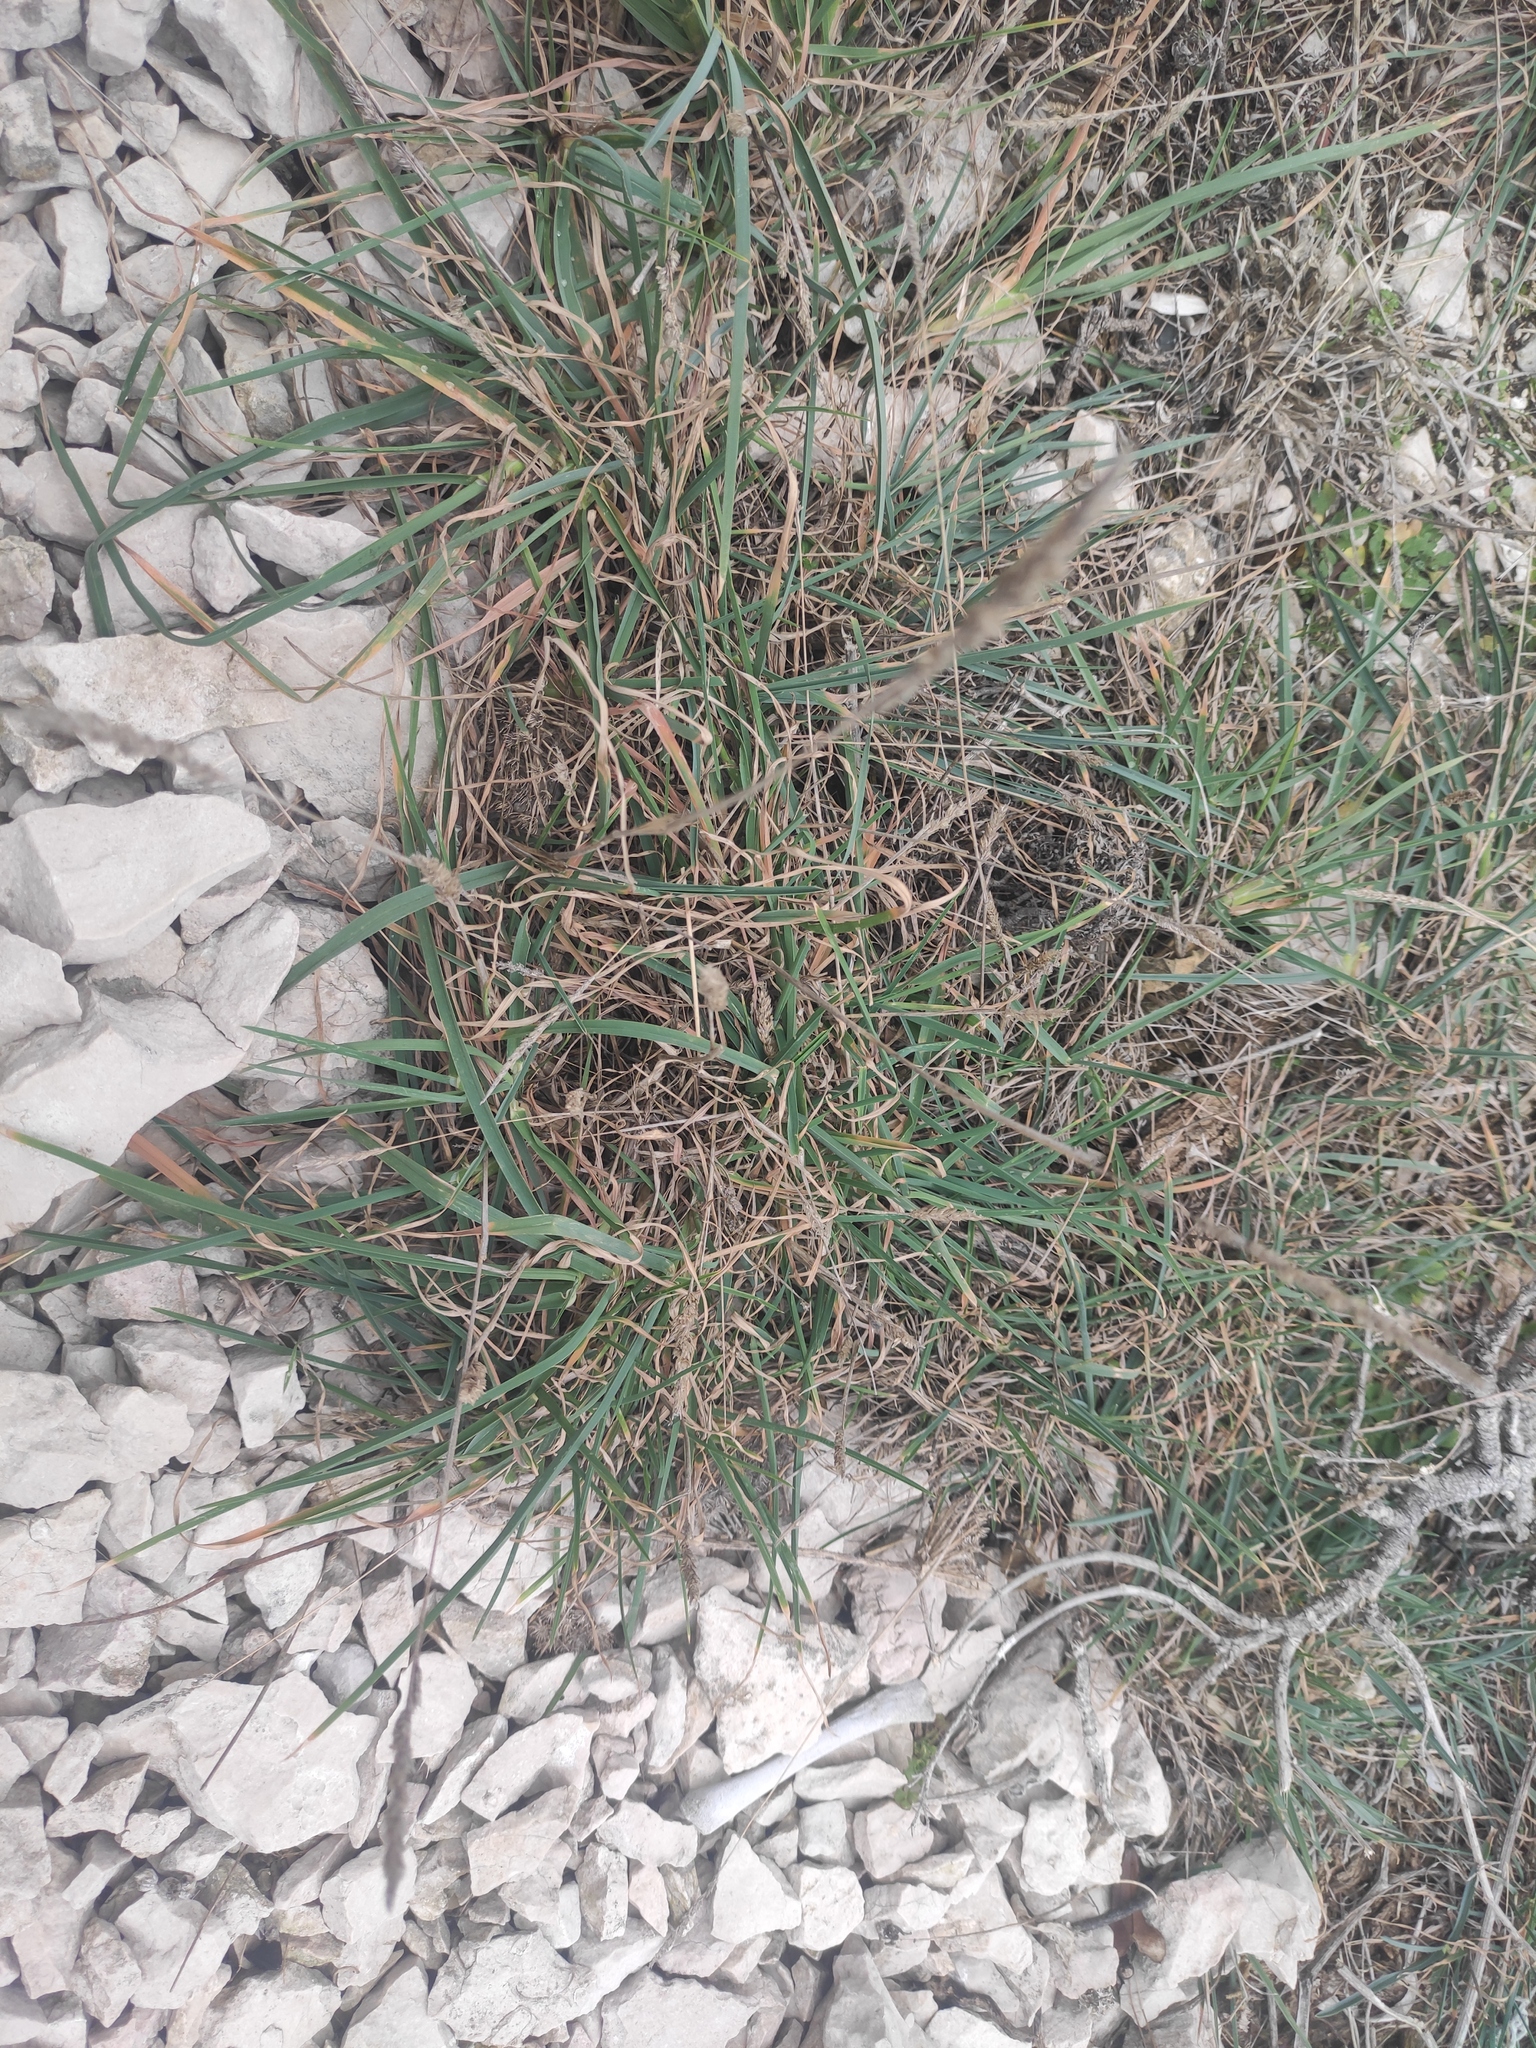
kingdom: Plantae
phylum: Tracheophyta
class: Liliopsida
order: Poales
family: Poaceae
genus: Dactylis
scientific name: Dactylis glomerata
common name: Orchardgrass
